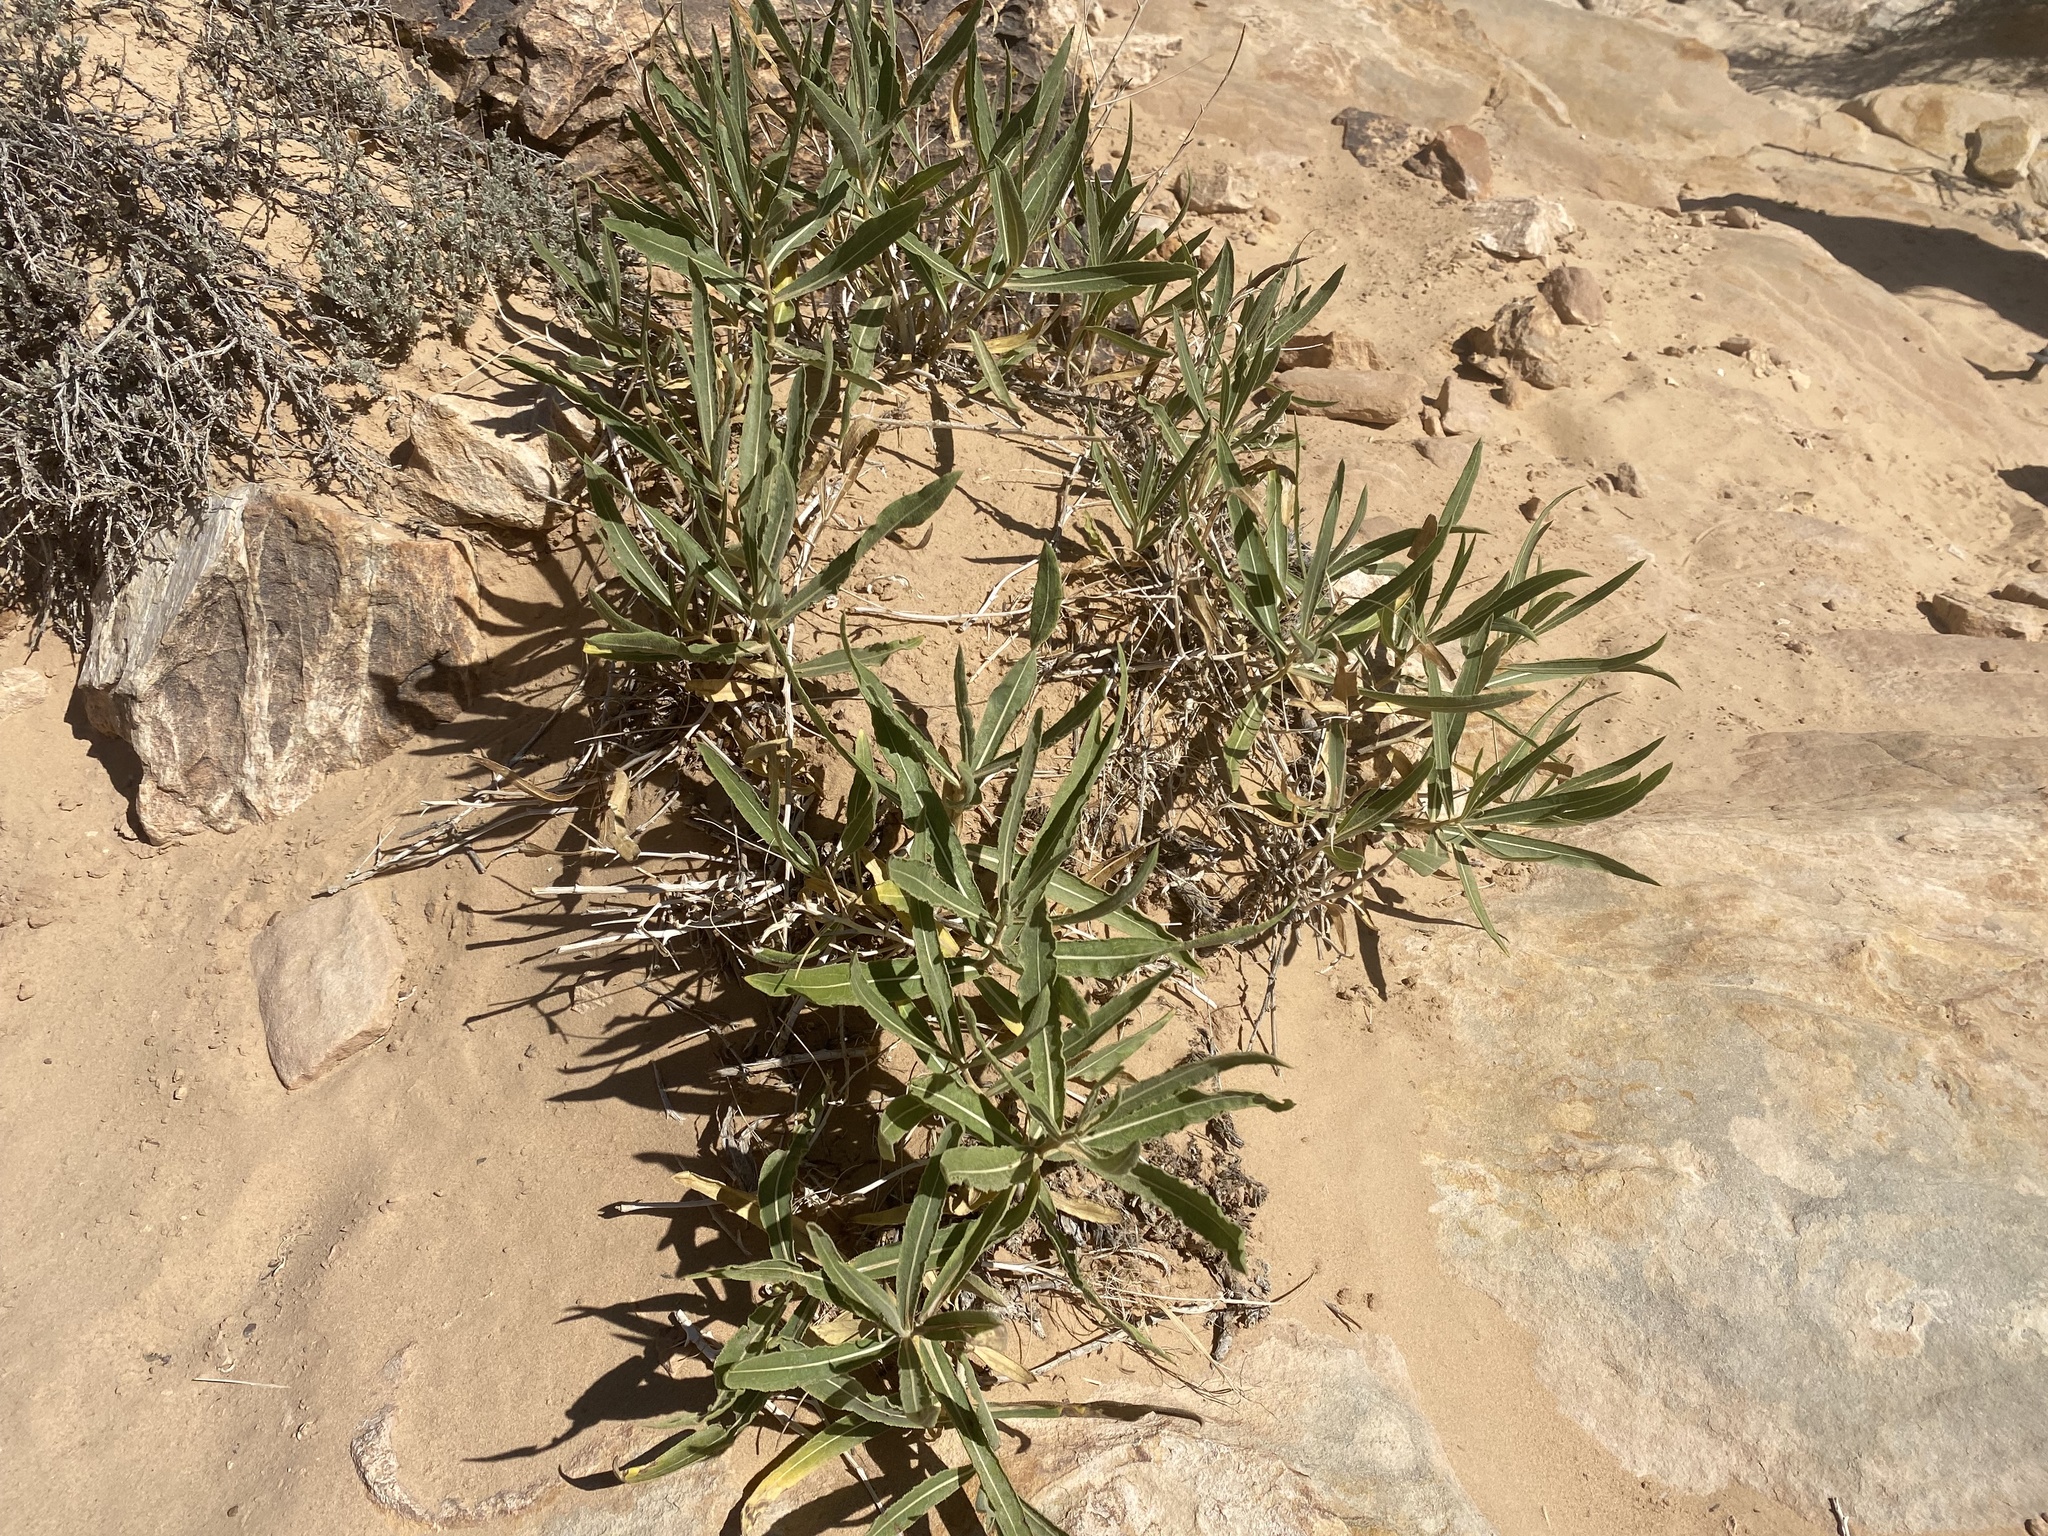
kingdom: Plantae
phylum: Tracheophyta
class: Magnoliopsida
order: Myrtales
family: Onagraceae
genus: Chamaenerion
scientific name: Chamaenerion angustifolium
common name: Fireweed
